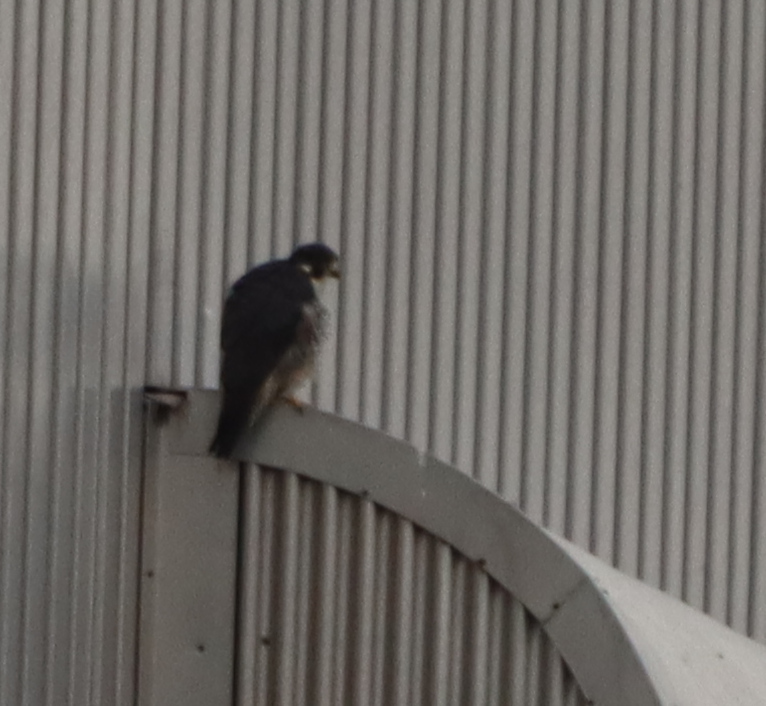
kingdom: Animalia
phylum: Chordata
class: Aves
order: Falconiformes
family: Falconidae
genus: Falco
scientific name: Falco peregrinus
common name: Peregrine falcon
